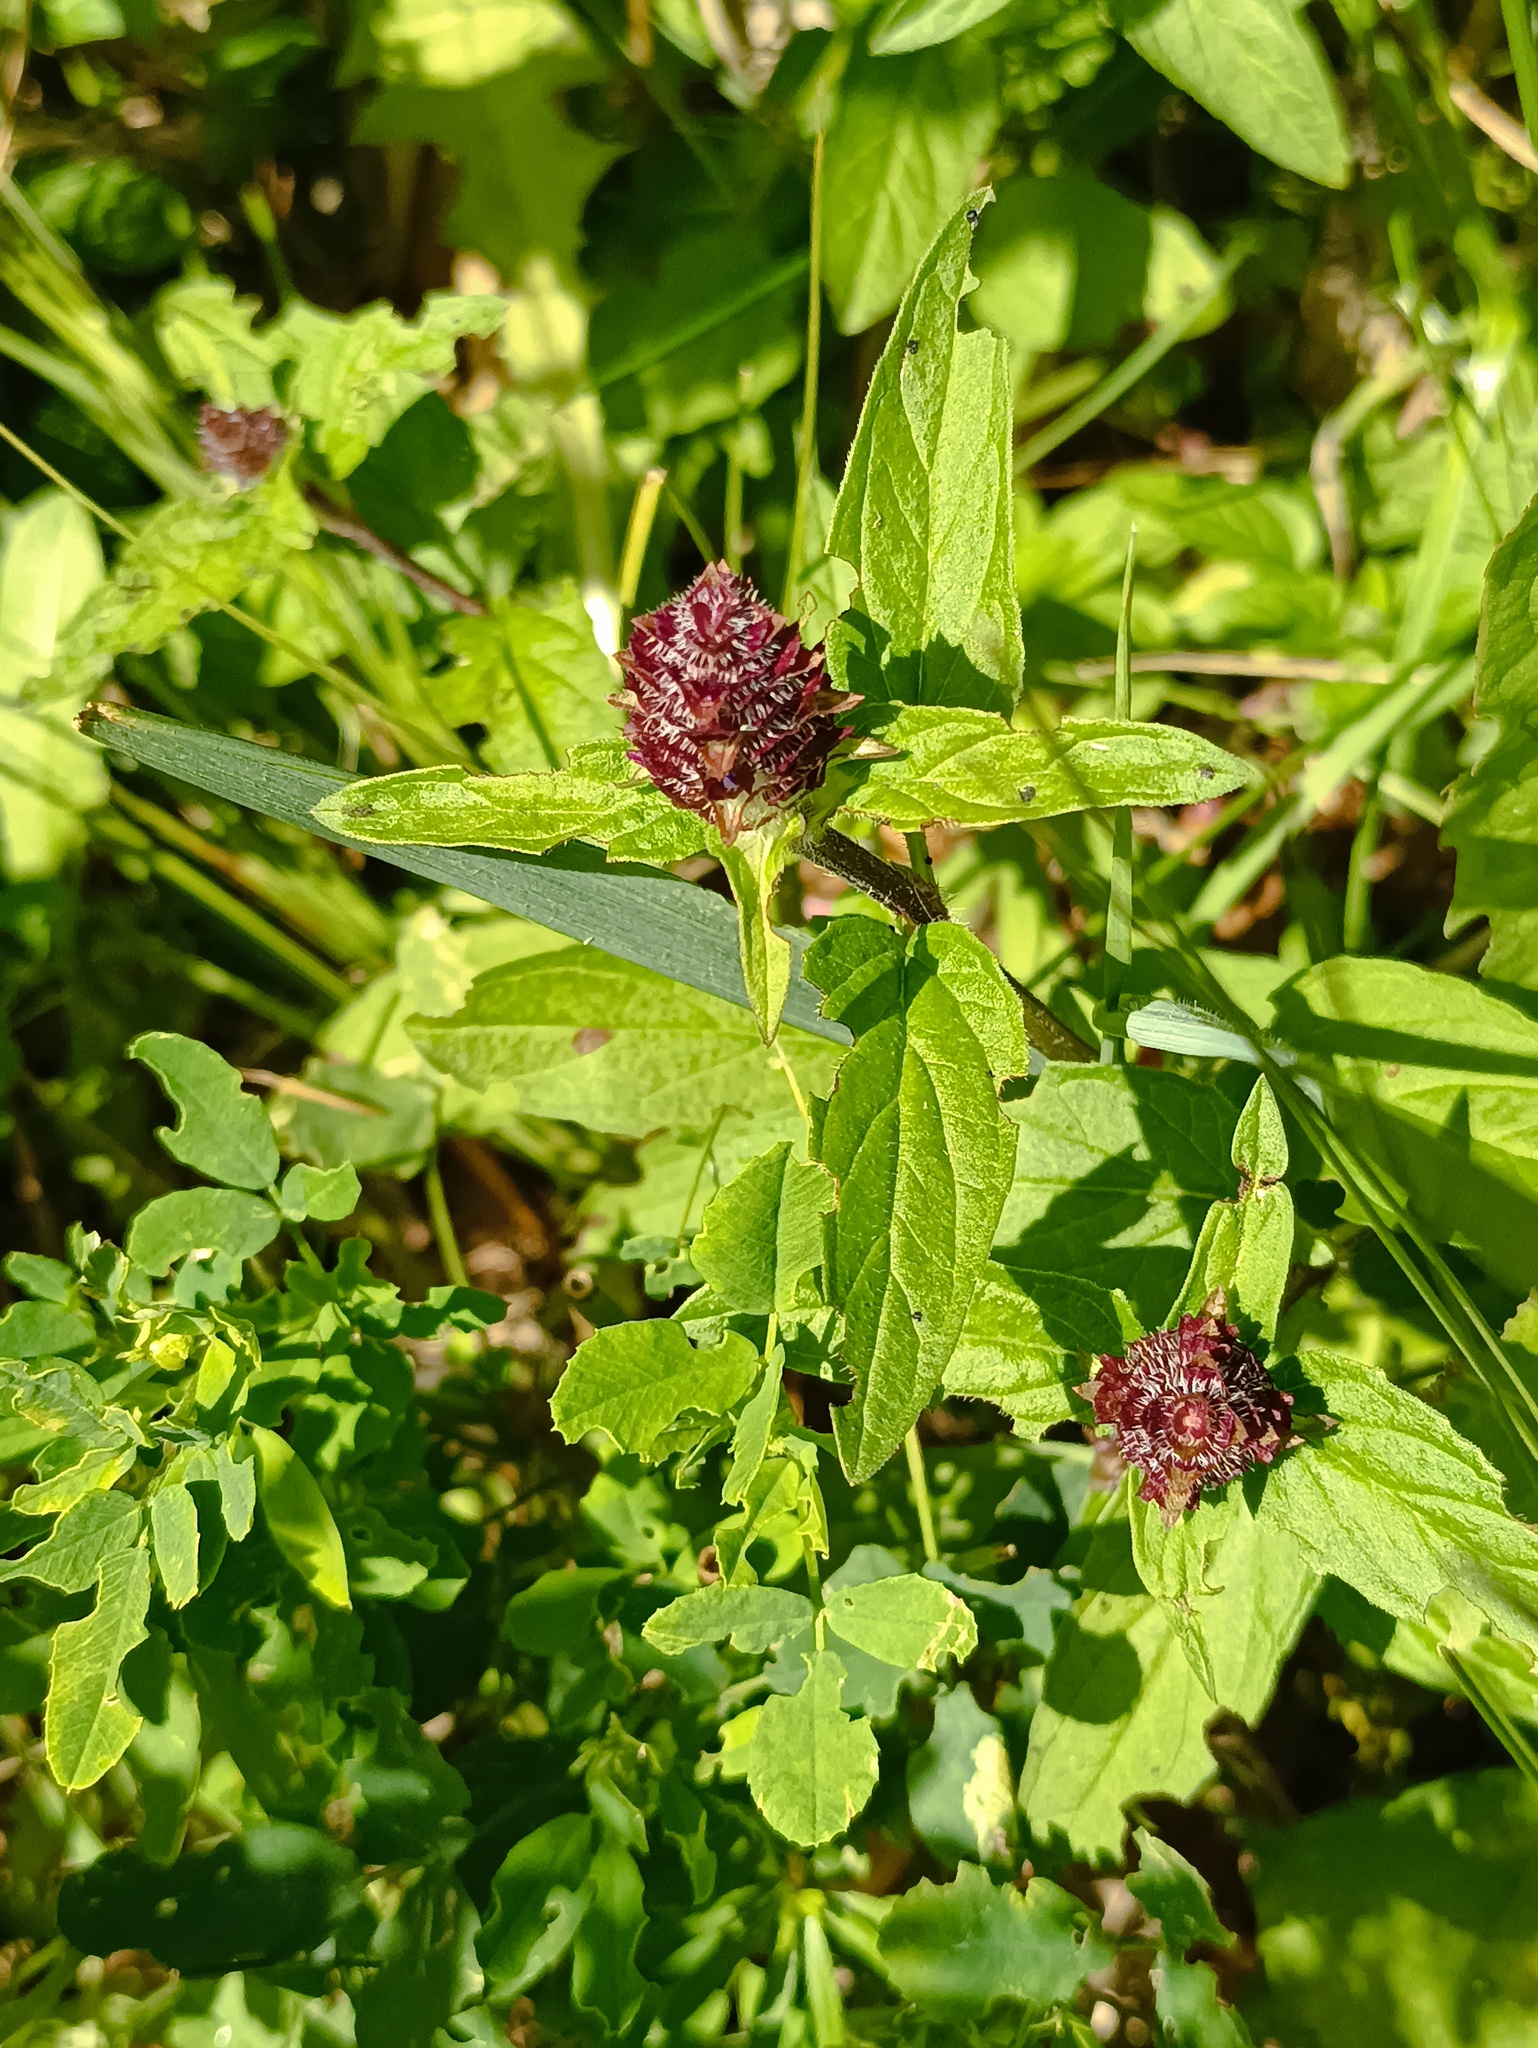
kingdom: Plantae
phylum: Tracheophyta
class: Magnoliopsida
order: Lamiales
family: Lamiaceae
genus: Prunella
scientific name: Prunella vulgaris
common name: Heal-all
